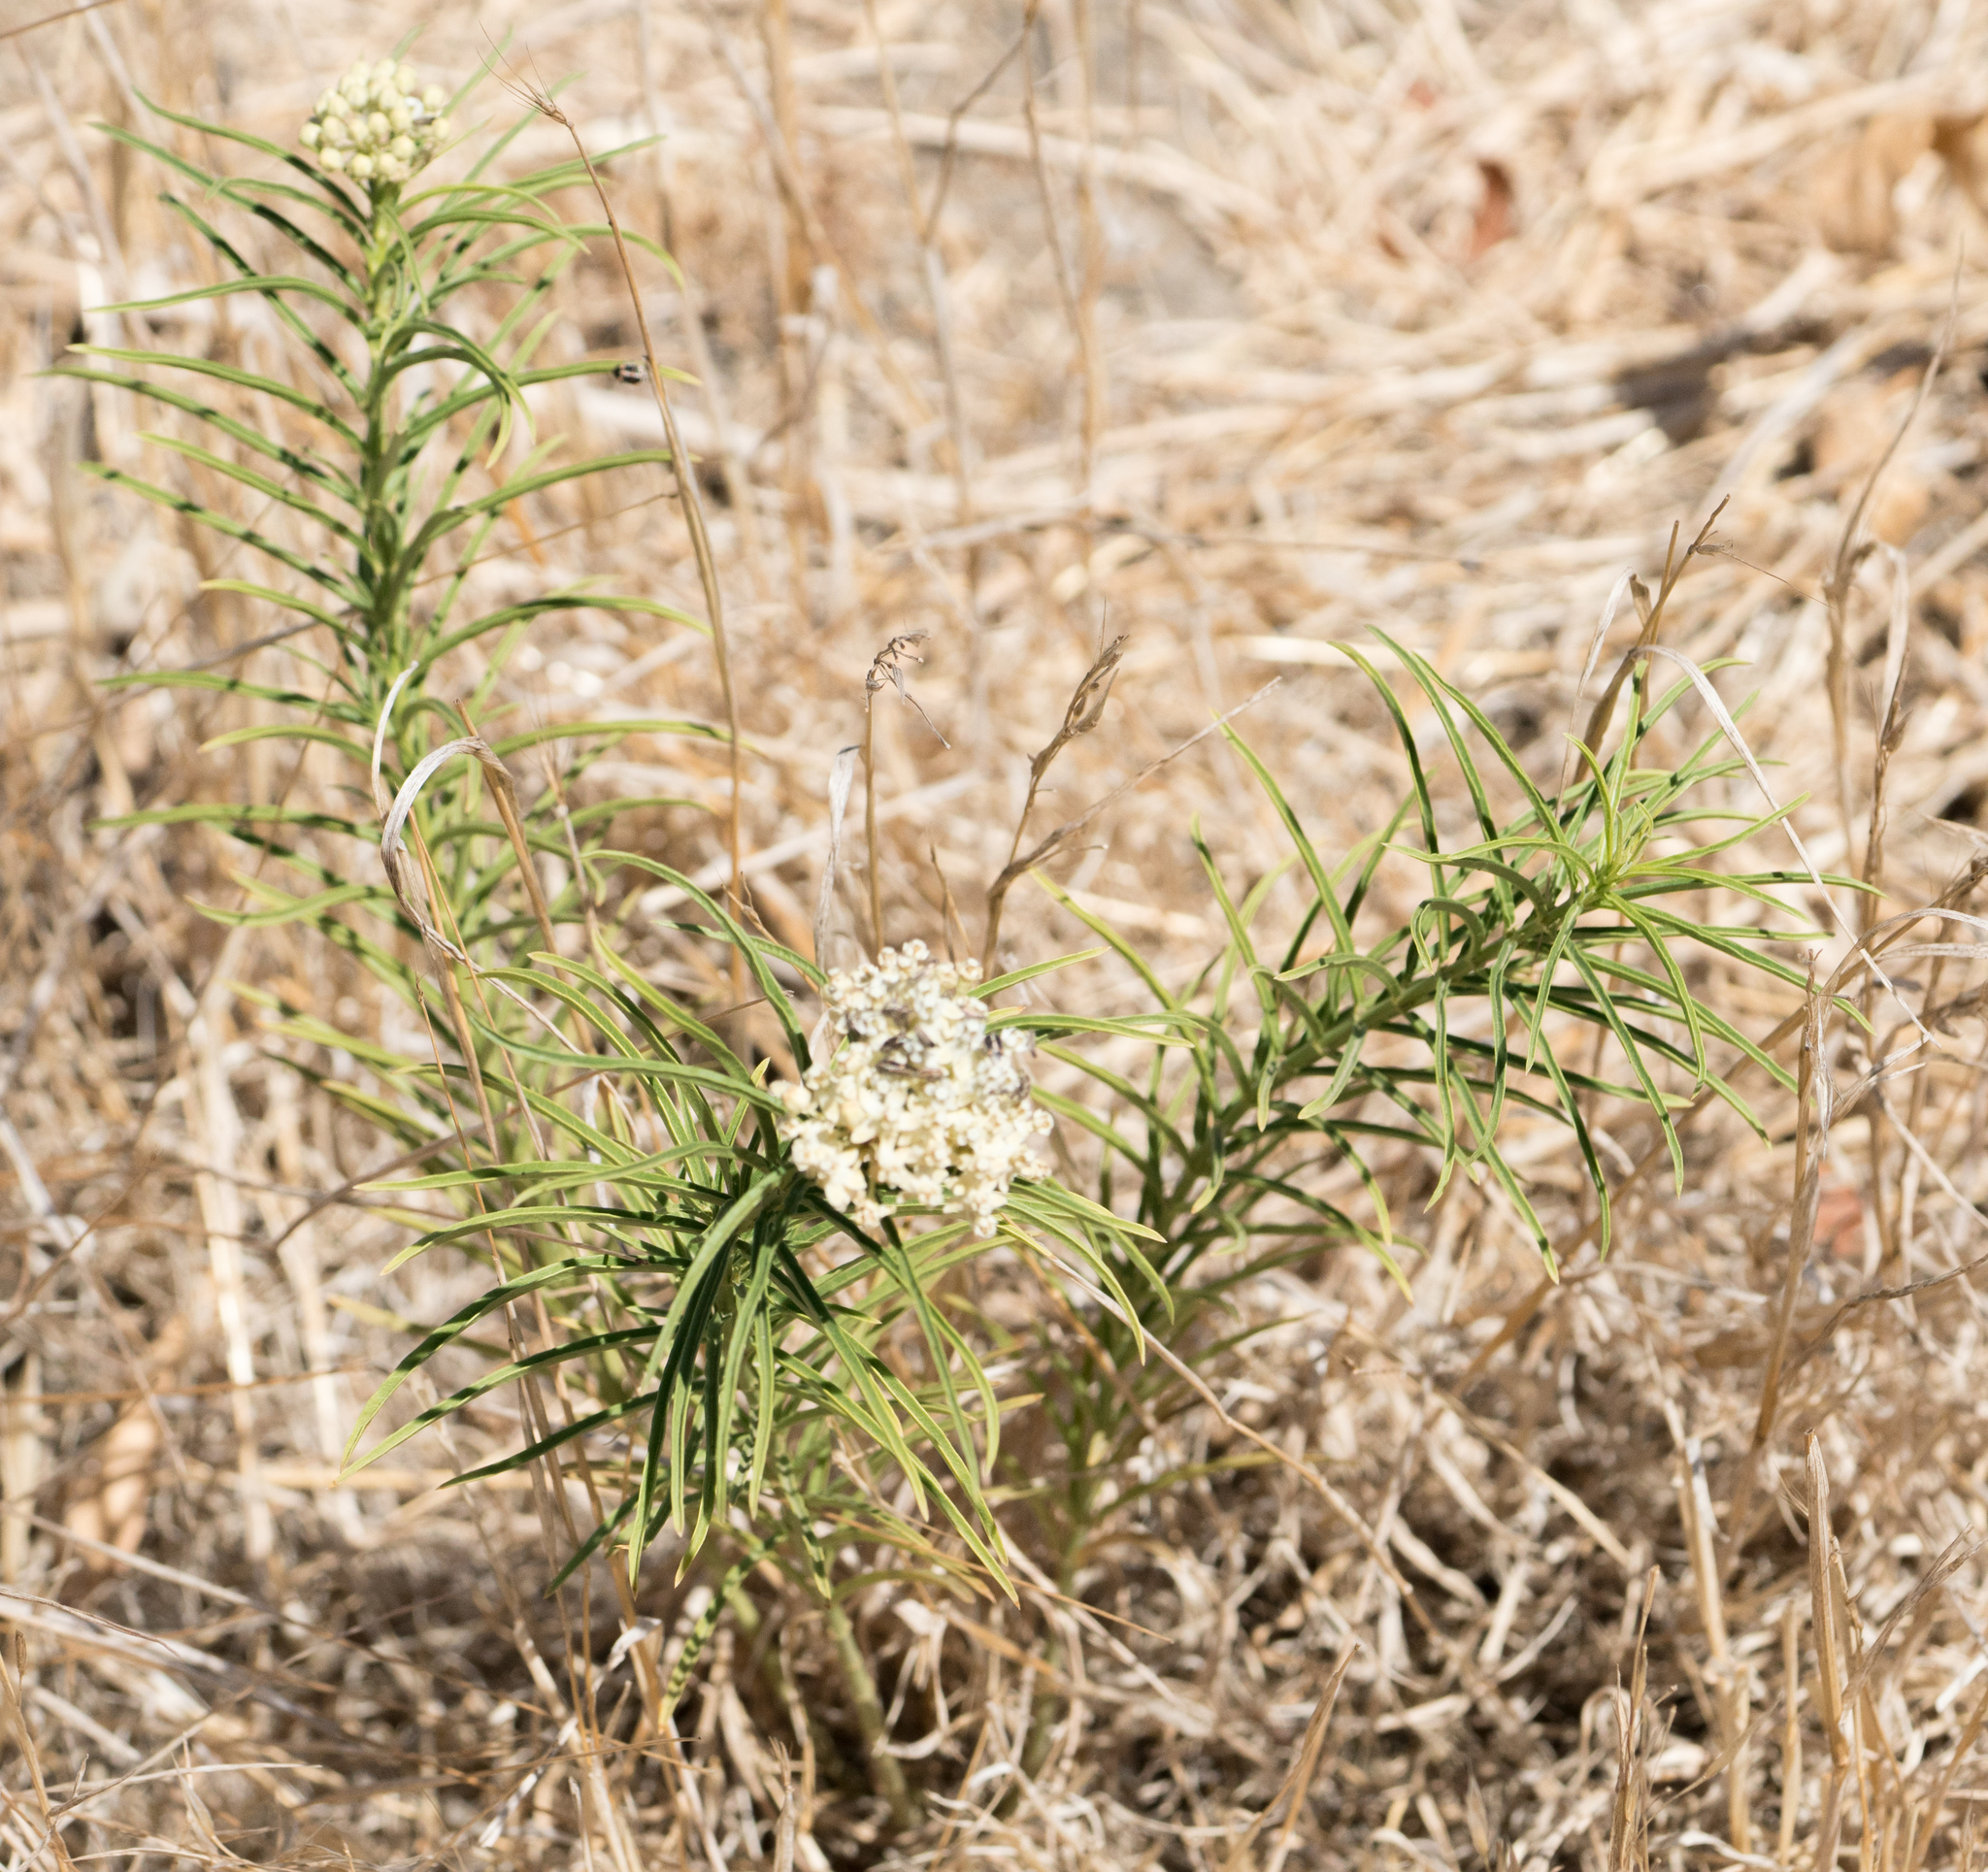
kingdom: Plantae
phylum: Tracheophyta
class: Magnoliopsida
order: Gentianales
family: Apocynaceae
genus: Asclepias
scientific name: Asclepias fascicularis
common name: Mexican milkweed
